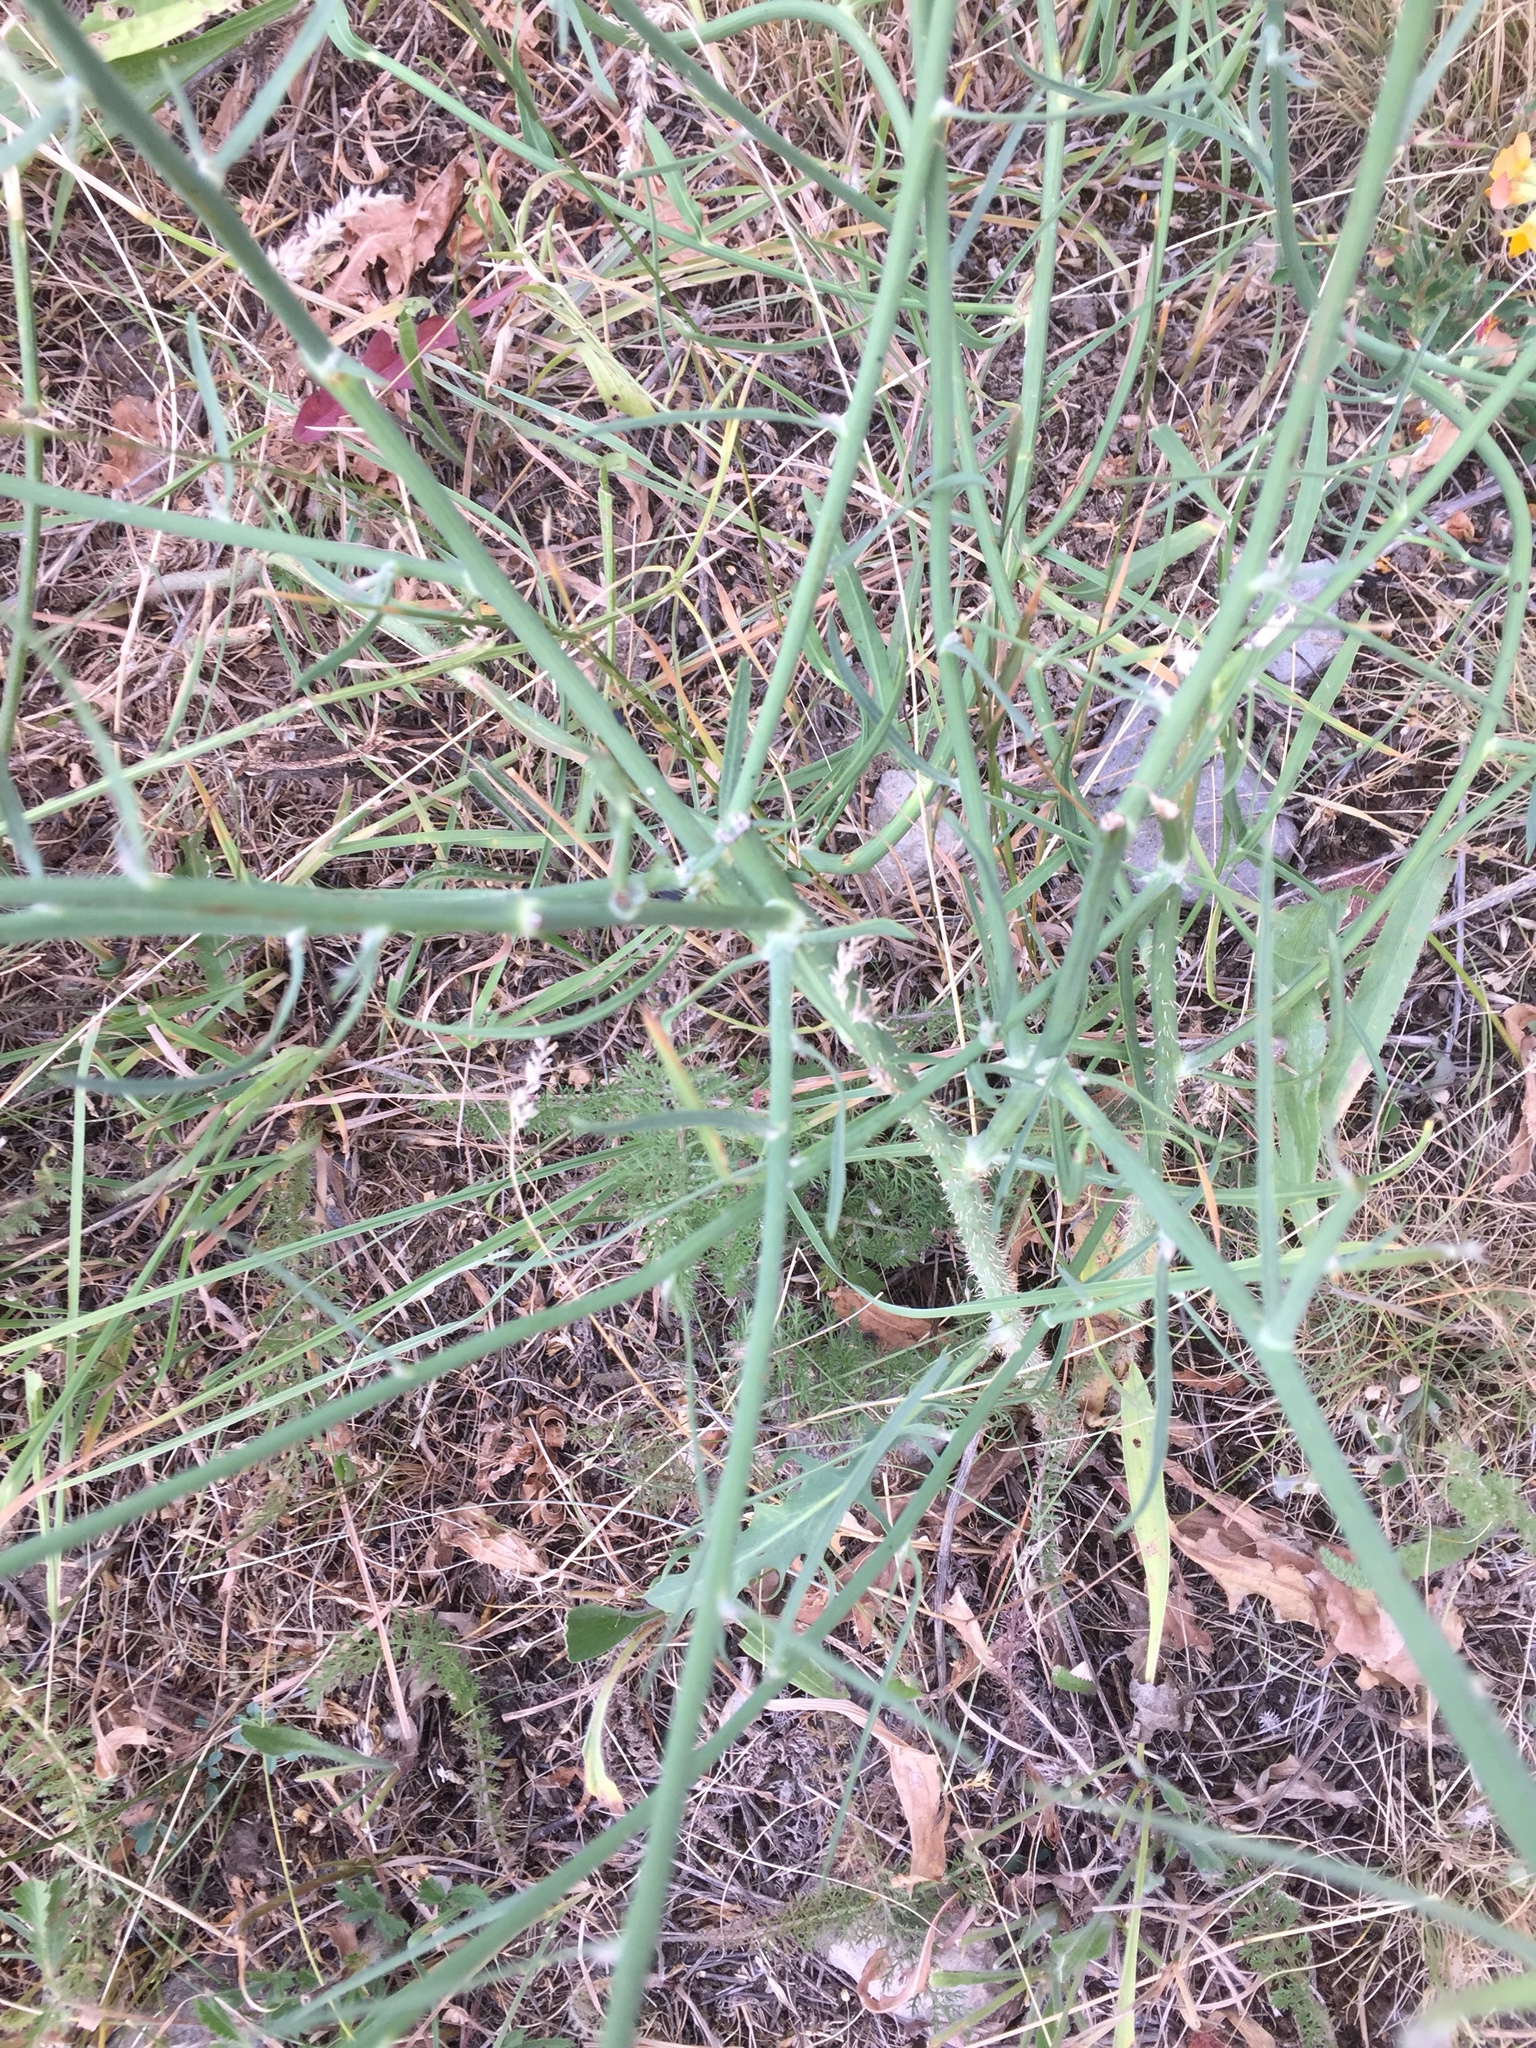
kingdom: Plantae
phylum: Tracheophyta
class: Magnoliopsida
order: Asterales
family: Asteraceae
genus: Chondrilla
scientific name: Chondrilla juncea
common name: Skeleton weed
